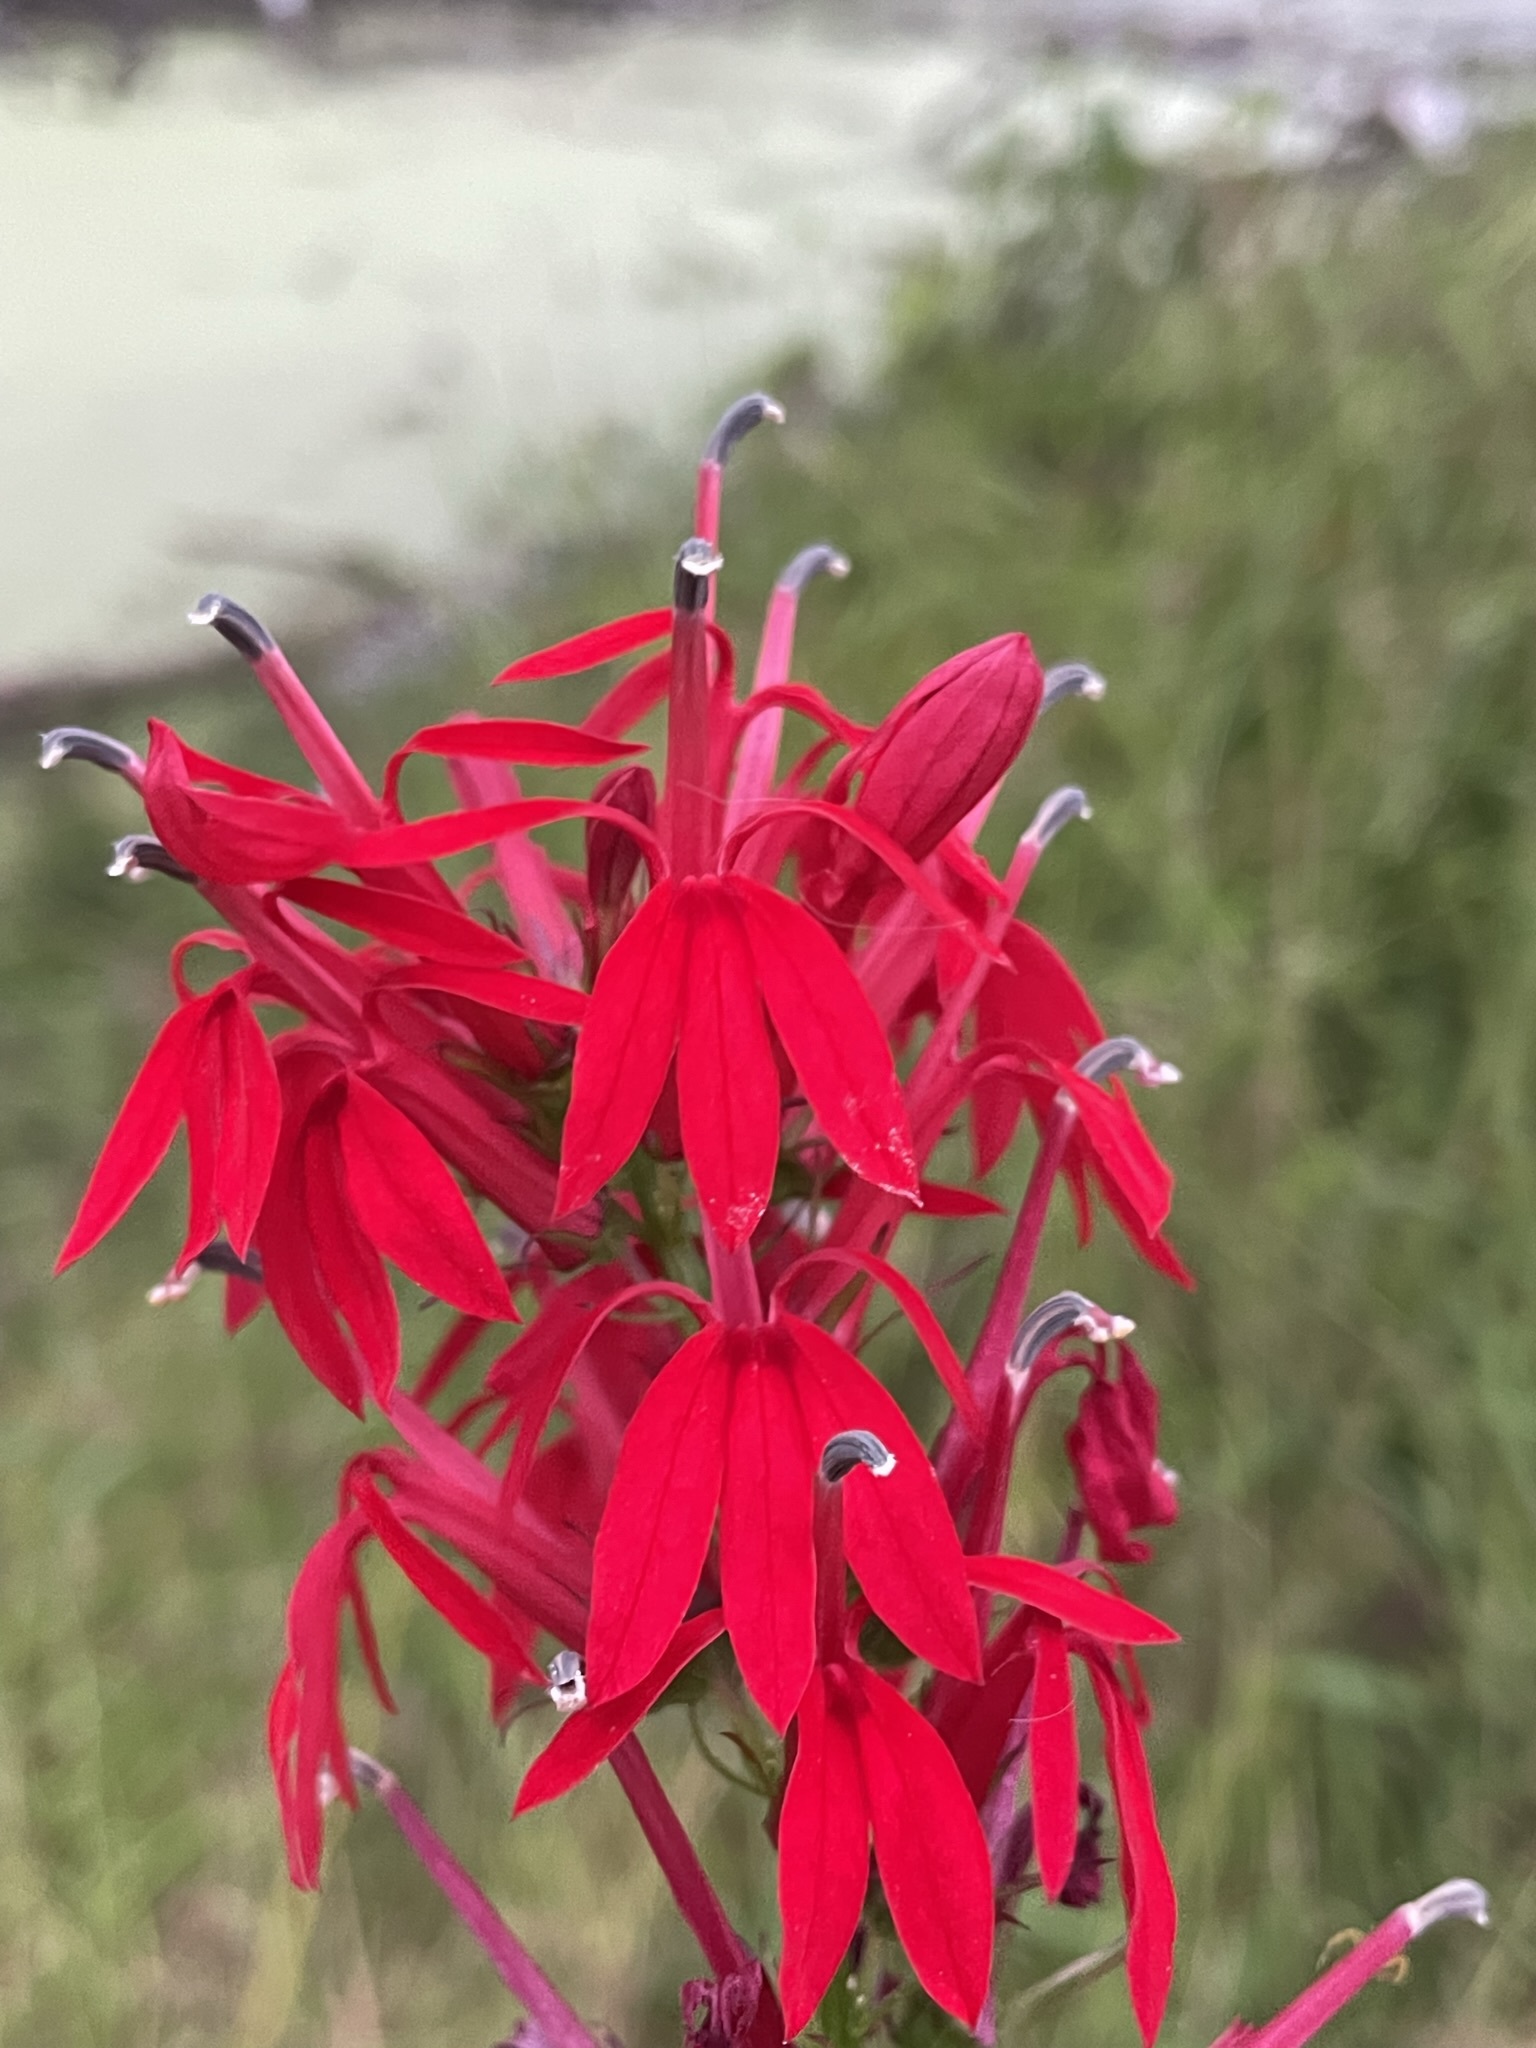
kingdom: Plantae
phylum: Tracheophyta
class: Magnoliopsida
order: Asterales
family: Campanulaceae
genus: Lobelia
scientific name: Lobelia cardinalis
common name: Cardinal flower
